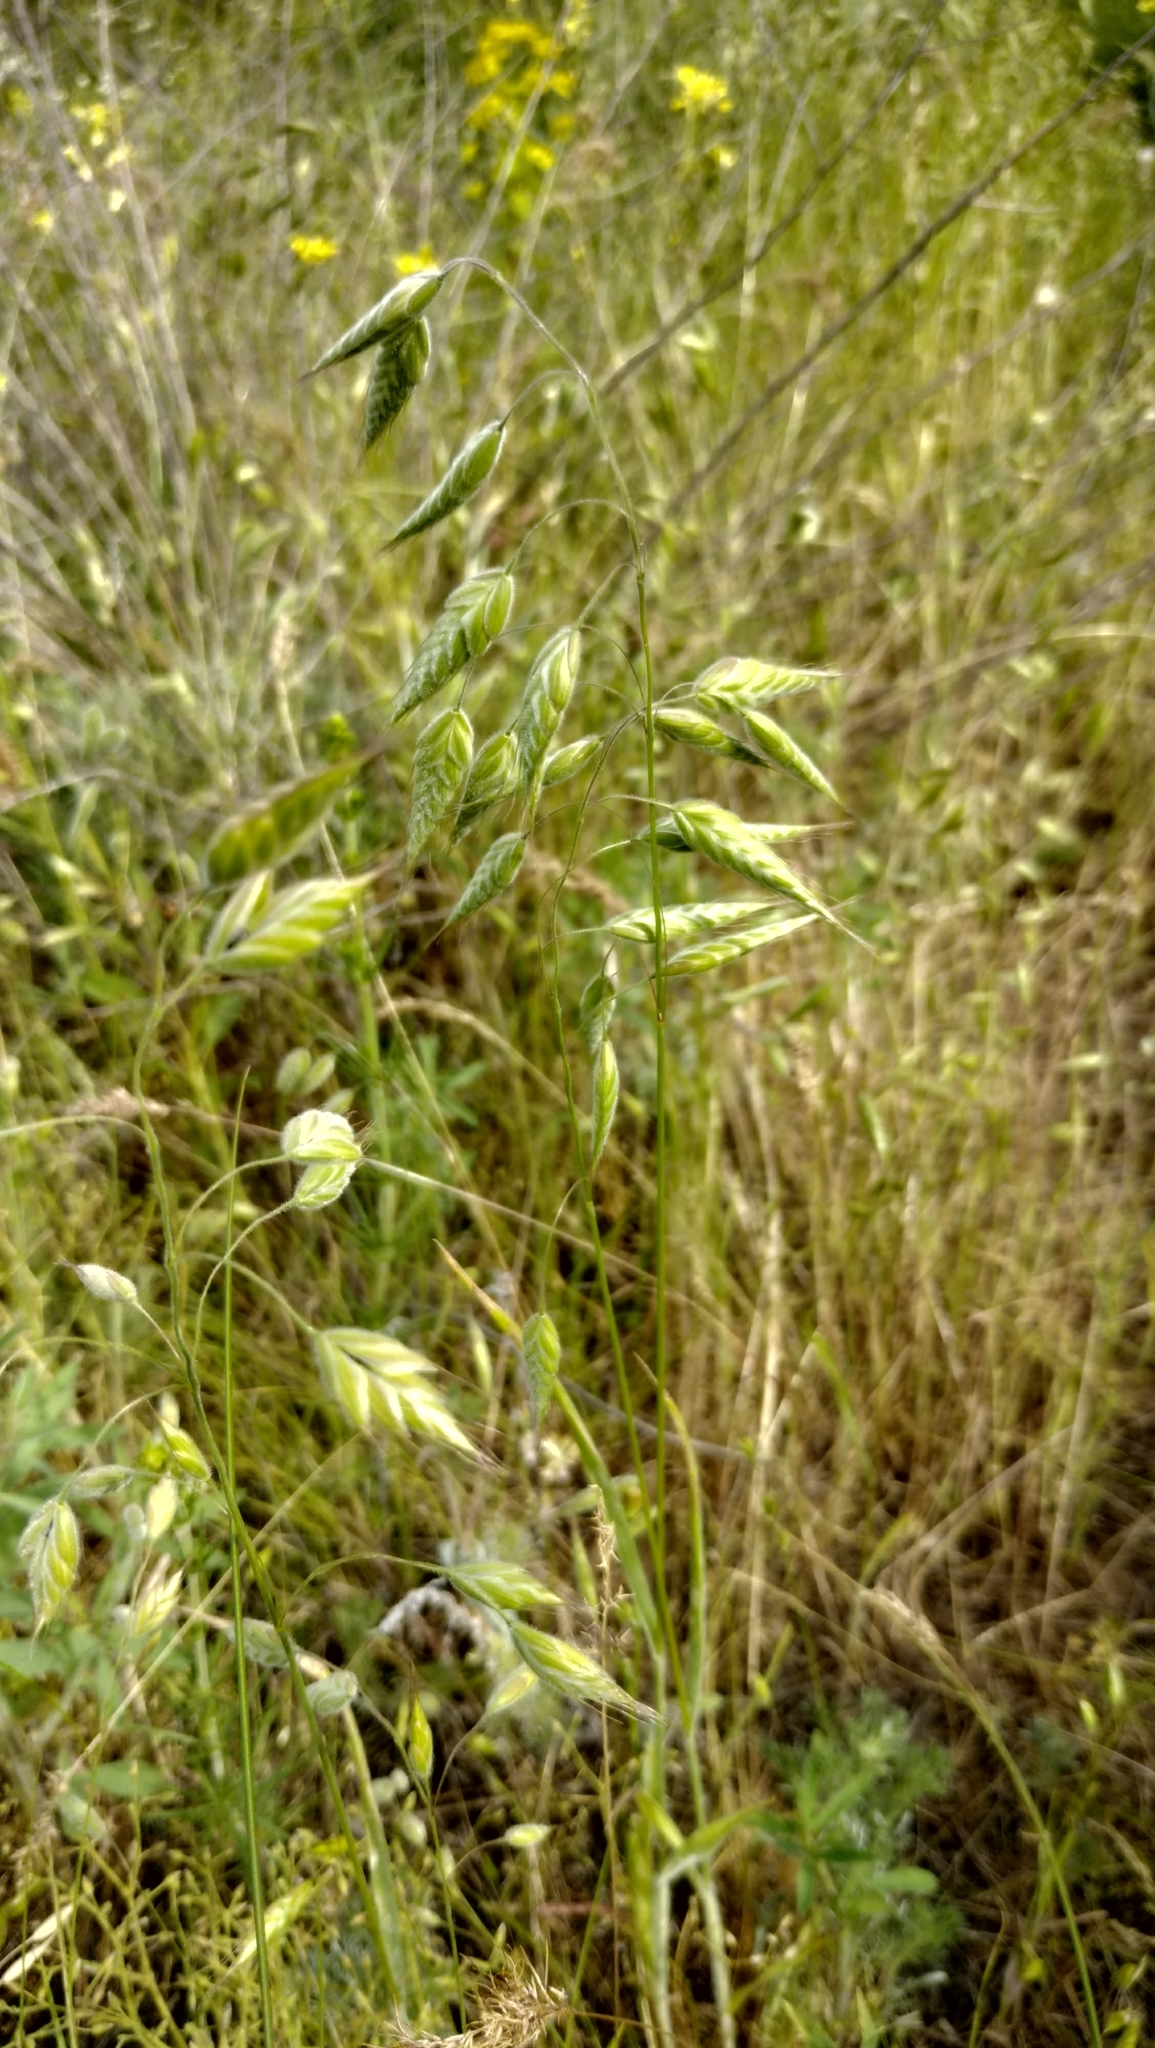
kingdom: Plantae
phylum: Tracheophyta
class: Liliopsida
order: Poales
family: Poaceae
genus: Bromus
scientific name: Bromus hordeaceus
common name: Soft brome
